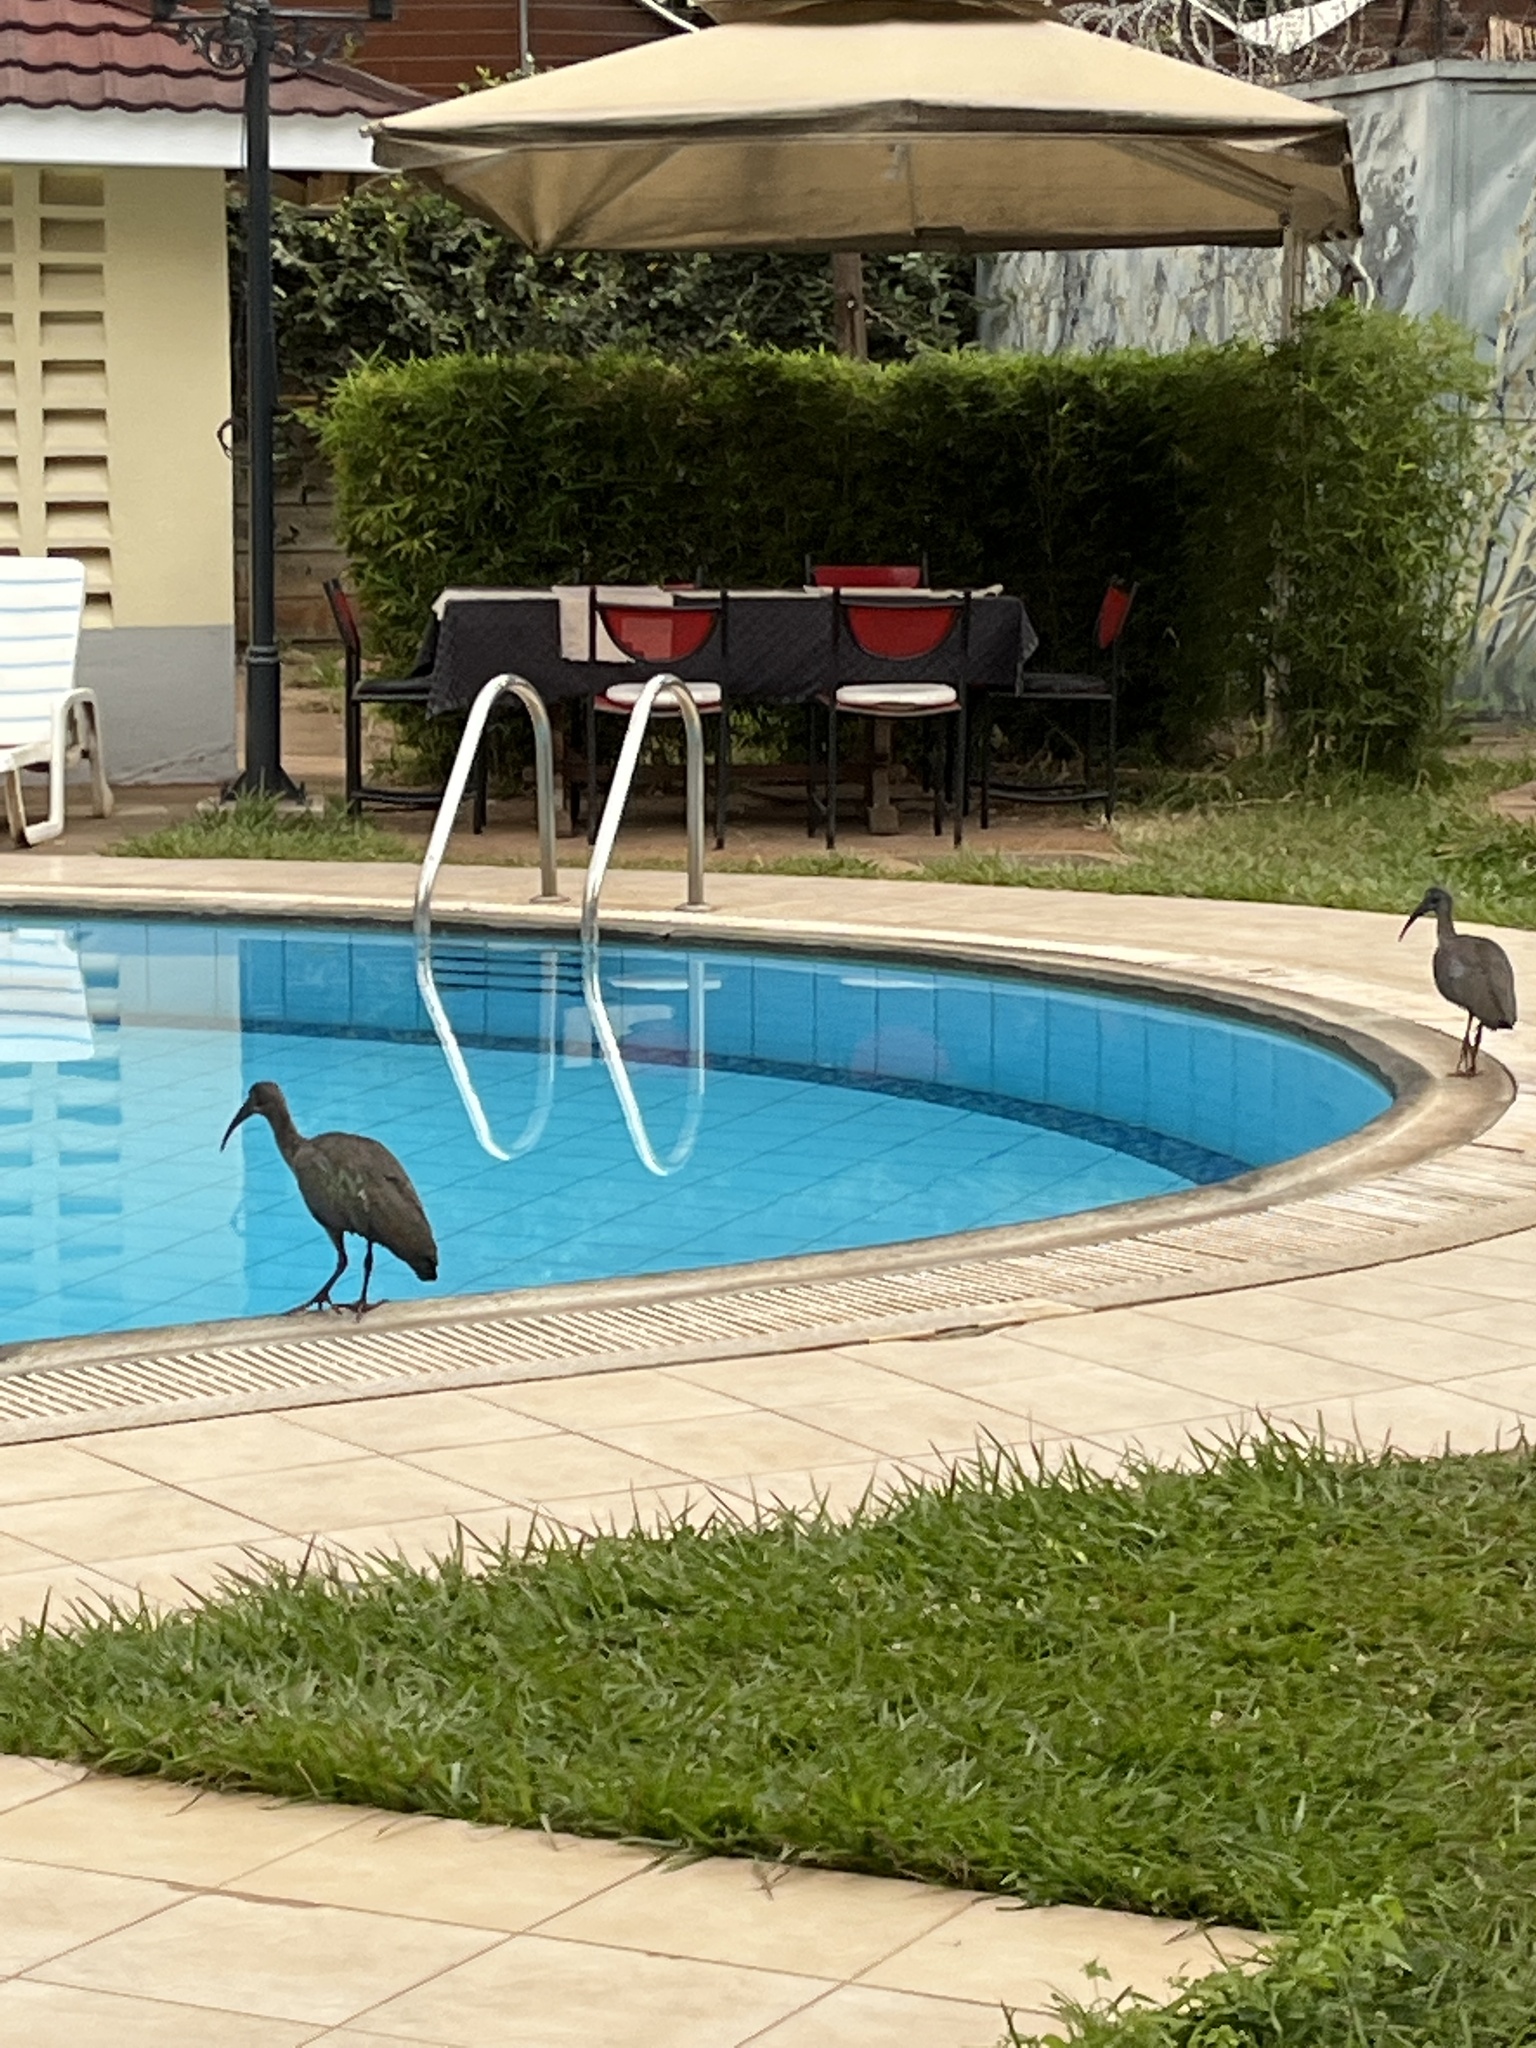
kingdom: Animalia
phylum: Chordata
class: Aves
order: Pelecaniformes
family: Threskiornithidae
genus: Bostrychia
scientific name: Bostrychia hagedash
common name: Hadada ibis
